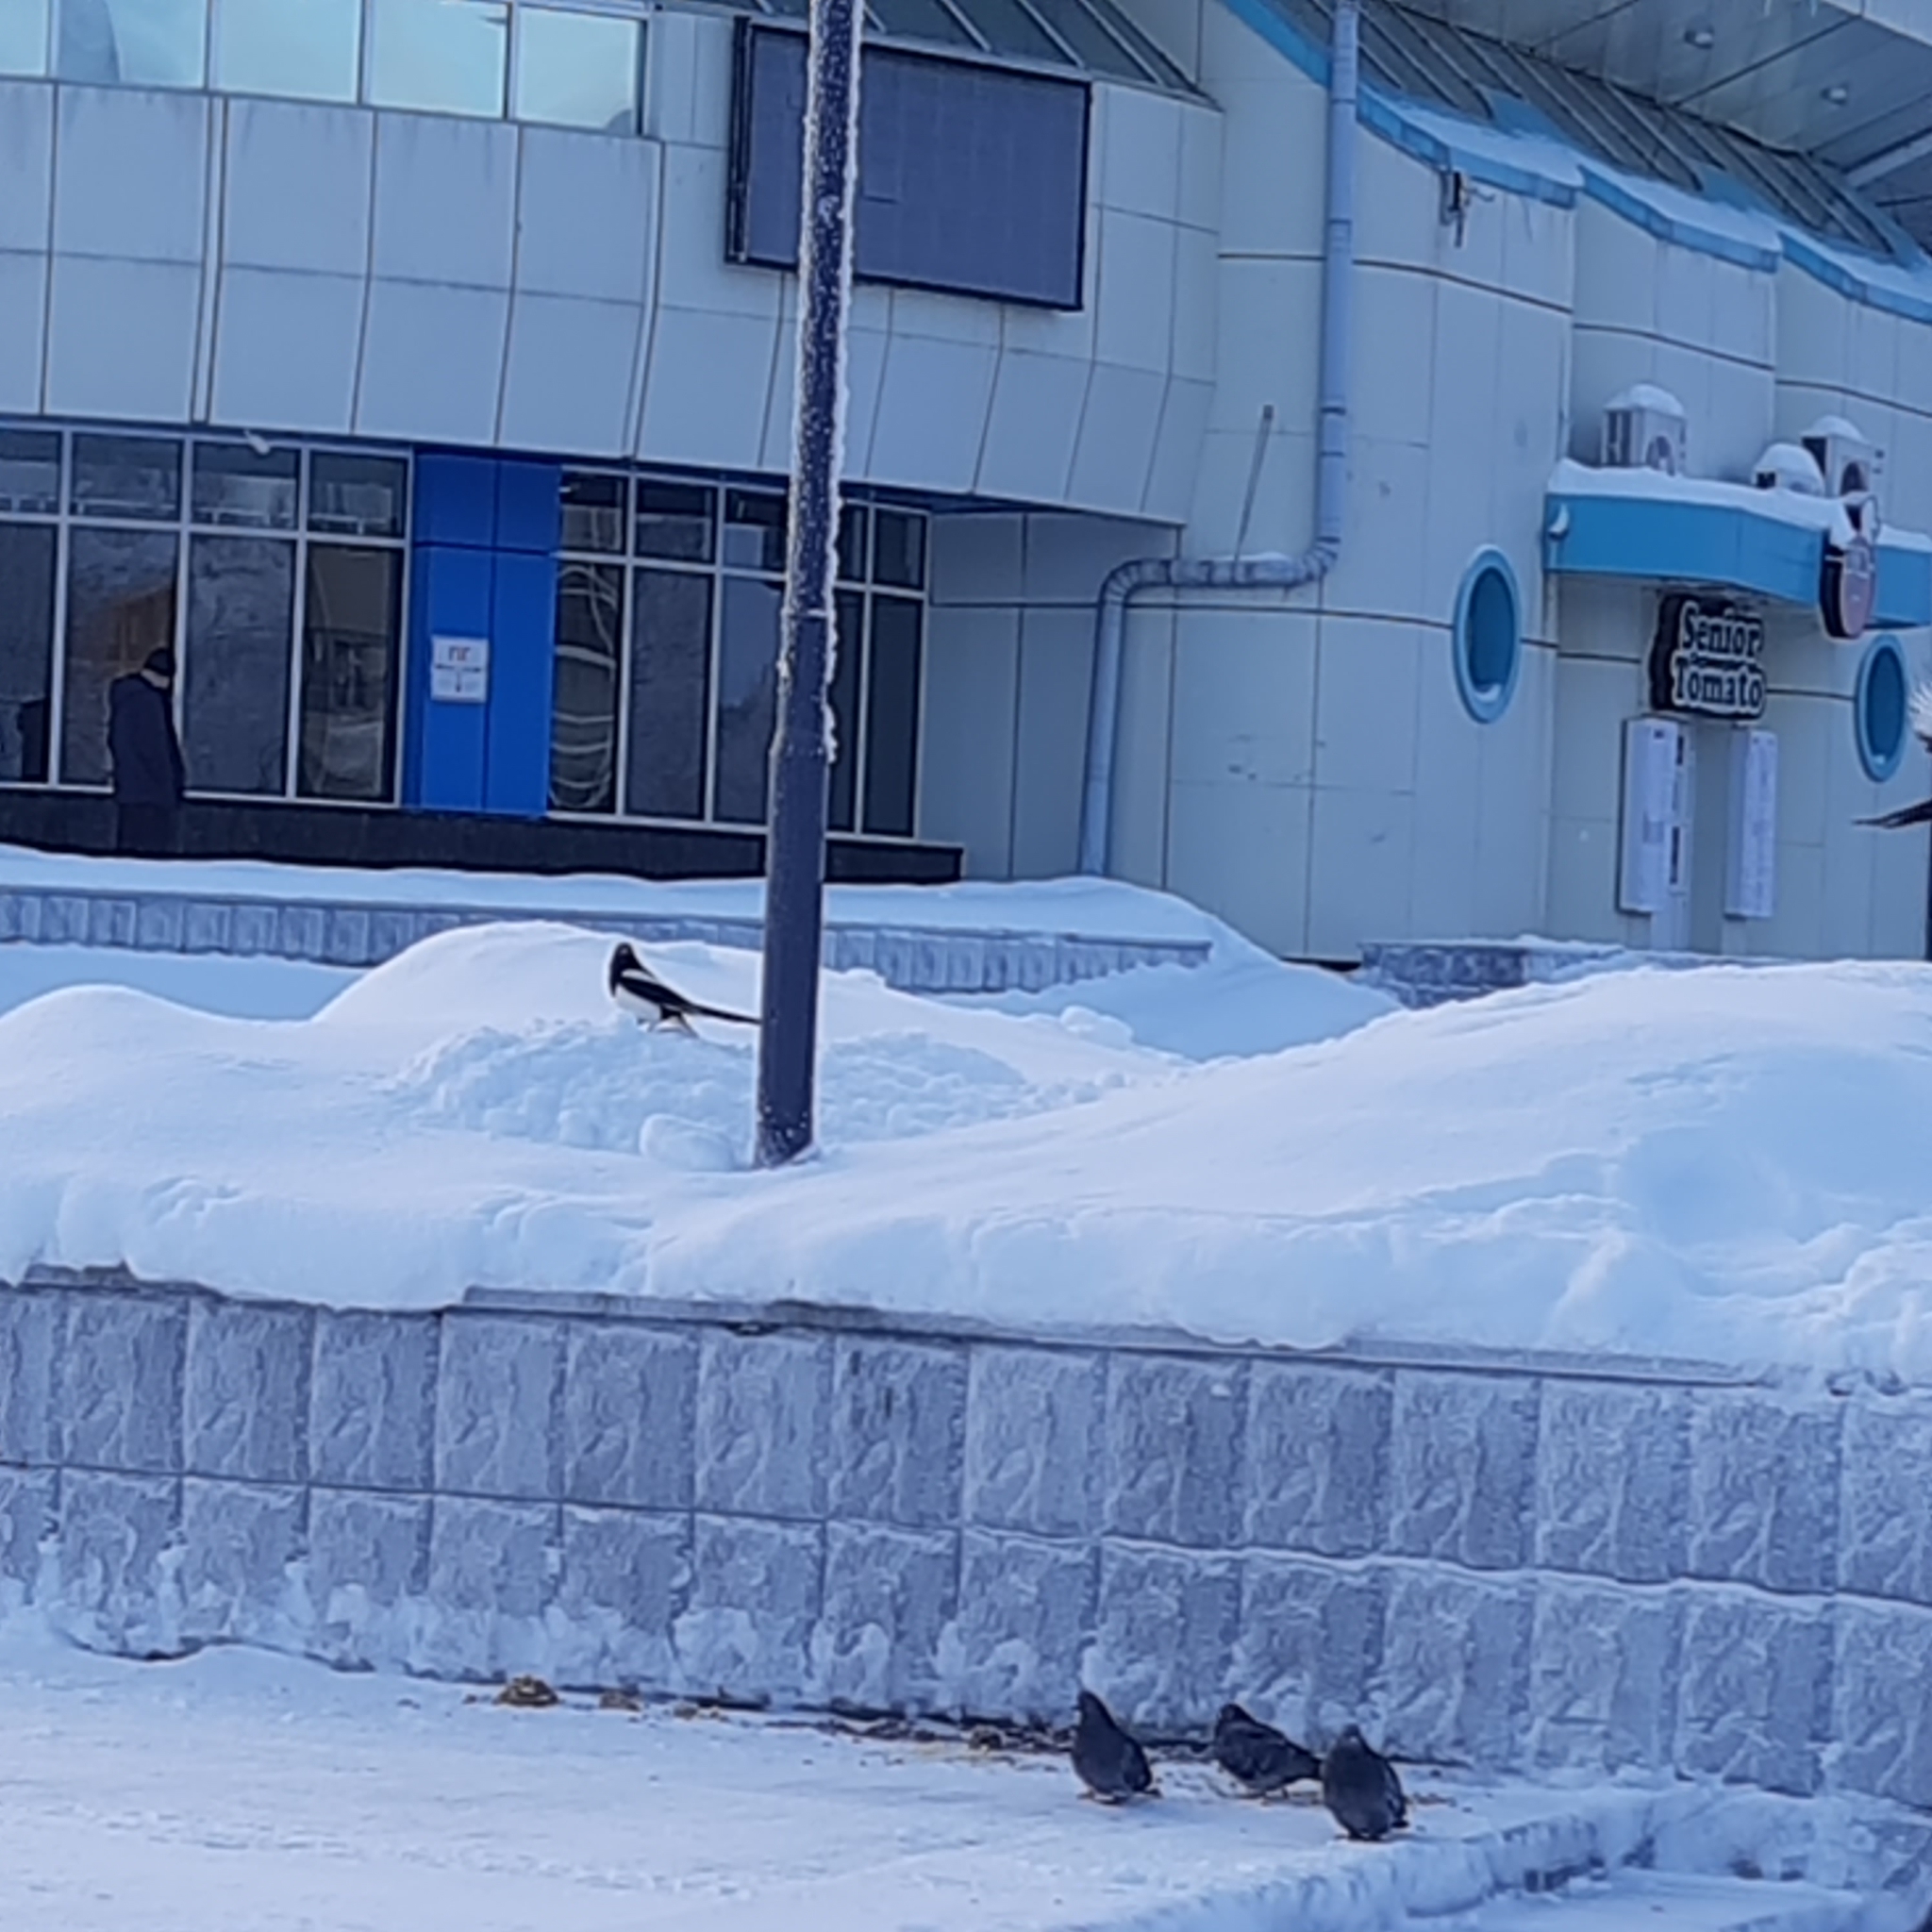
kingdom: Animalia
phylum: Chordata
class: Aves
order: Passeriformes
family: Corvidae
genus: Pica
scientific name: Pica pica
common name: Eurasian magpie
